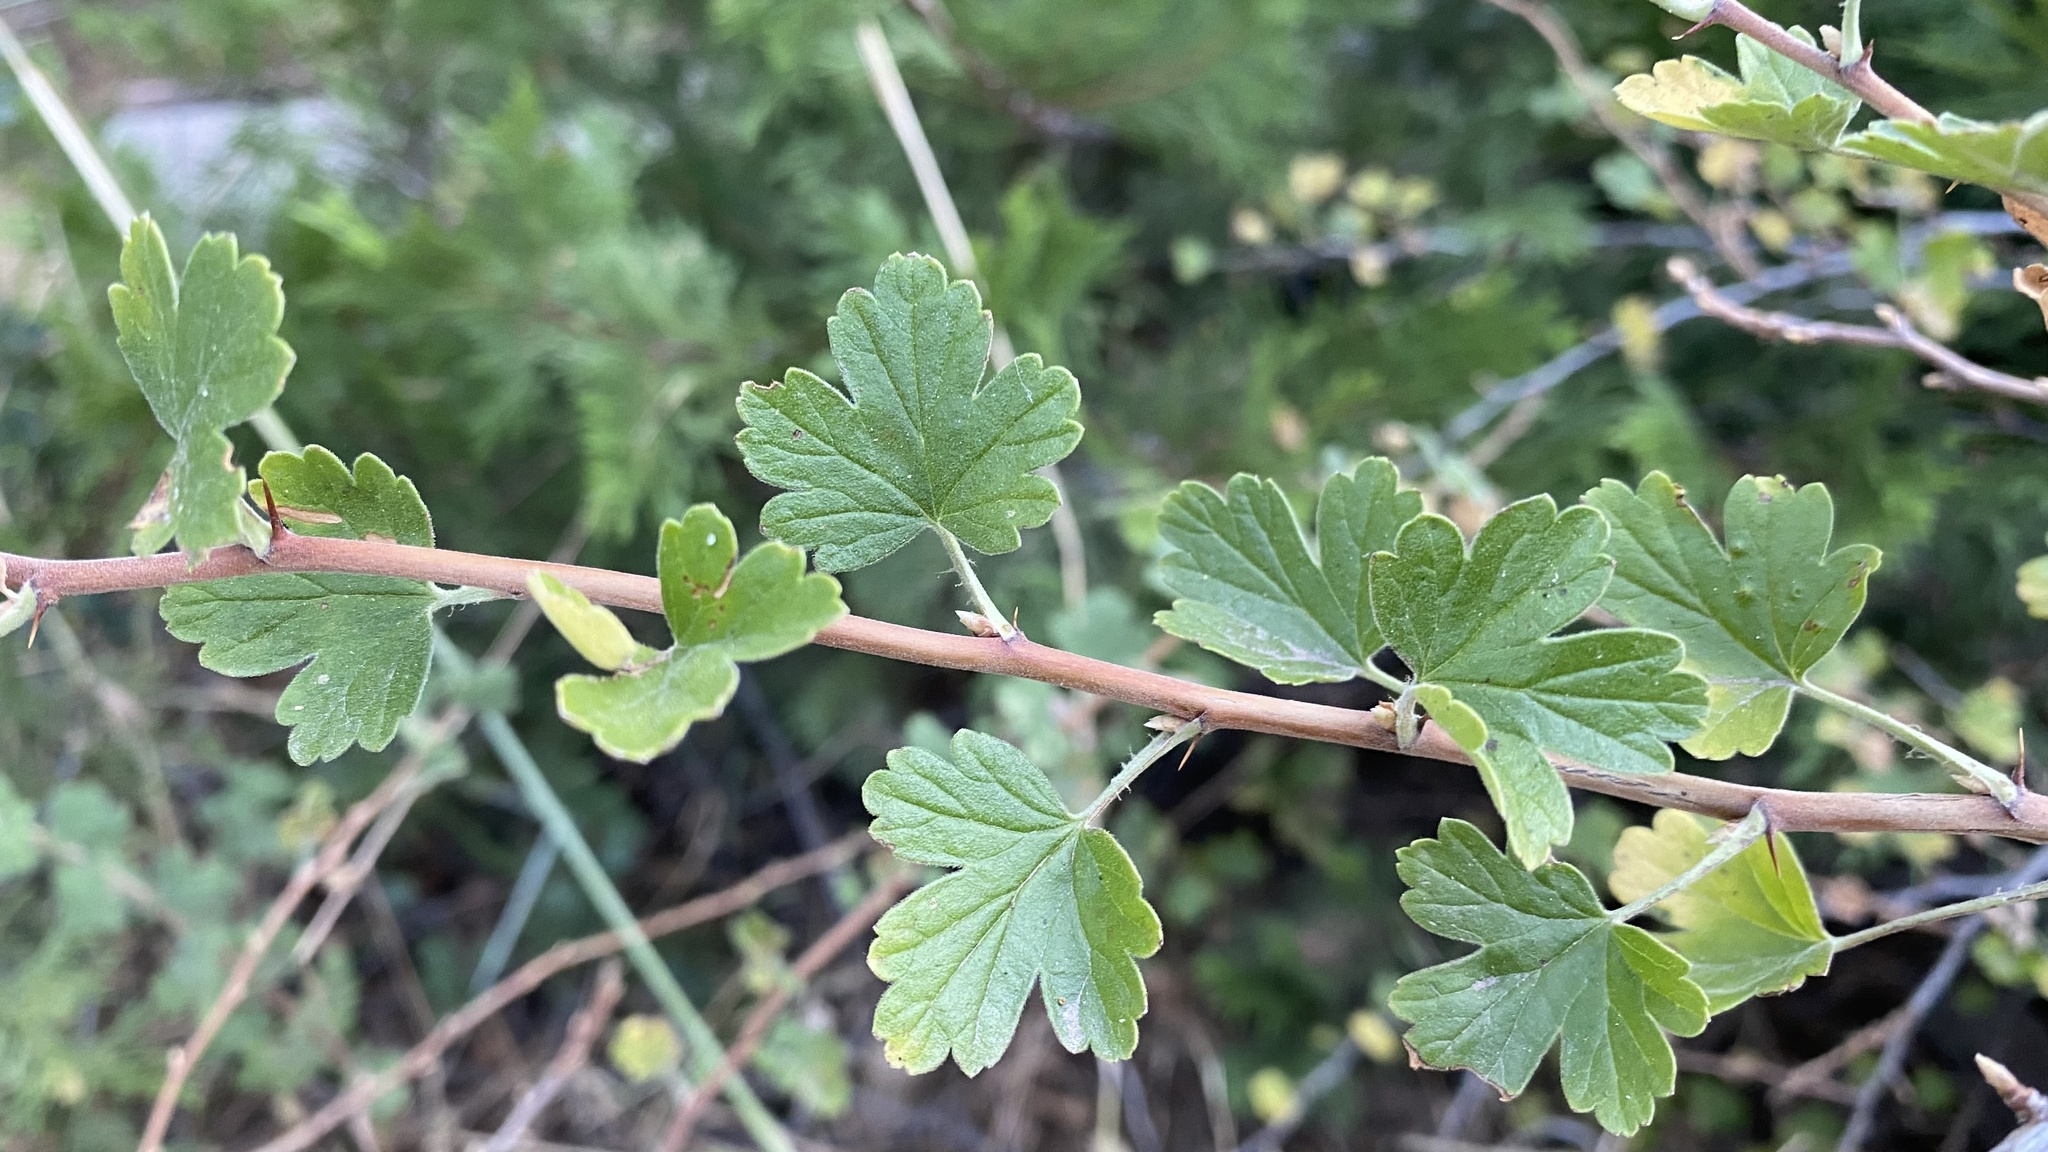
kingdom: Plantae
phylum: Tracheophyta
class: Magnoliopsida
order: Saxifragales
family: Grossulariaceae
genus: Ribes
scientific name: Ribes roezlii
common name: Sierra gooseberry
